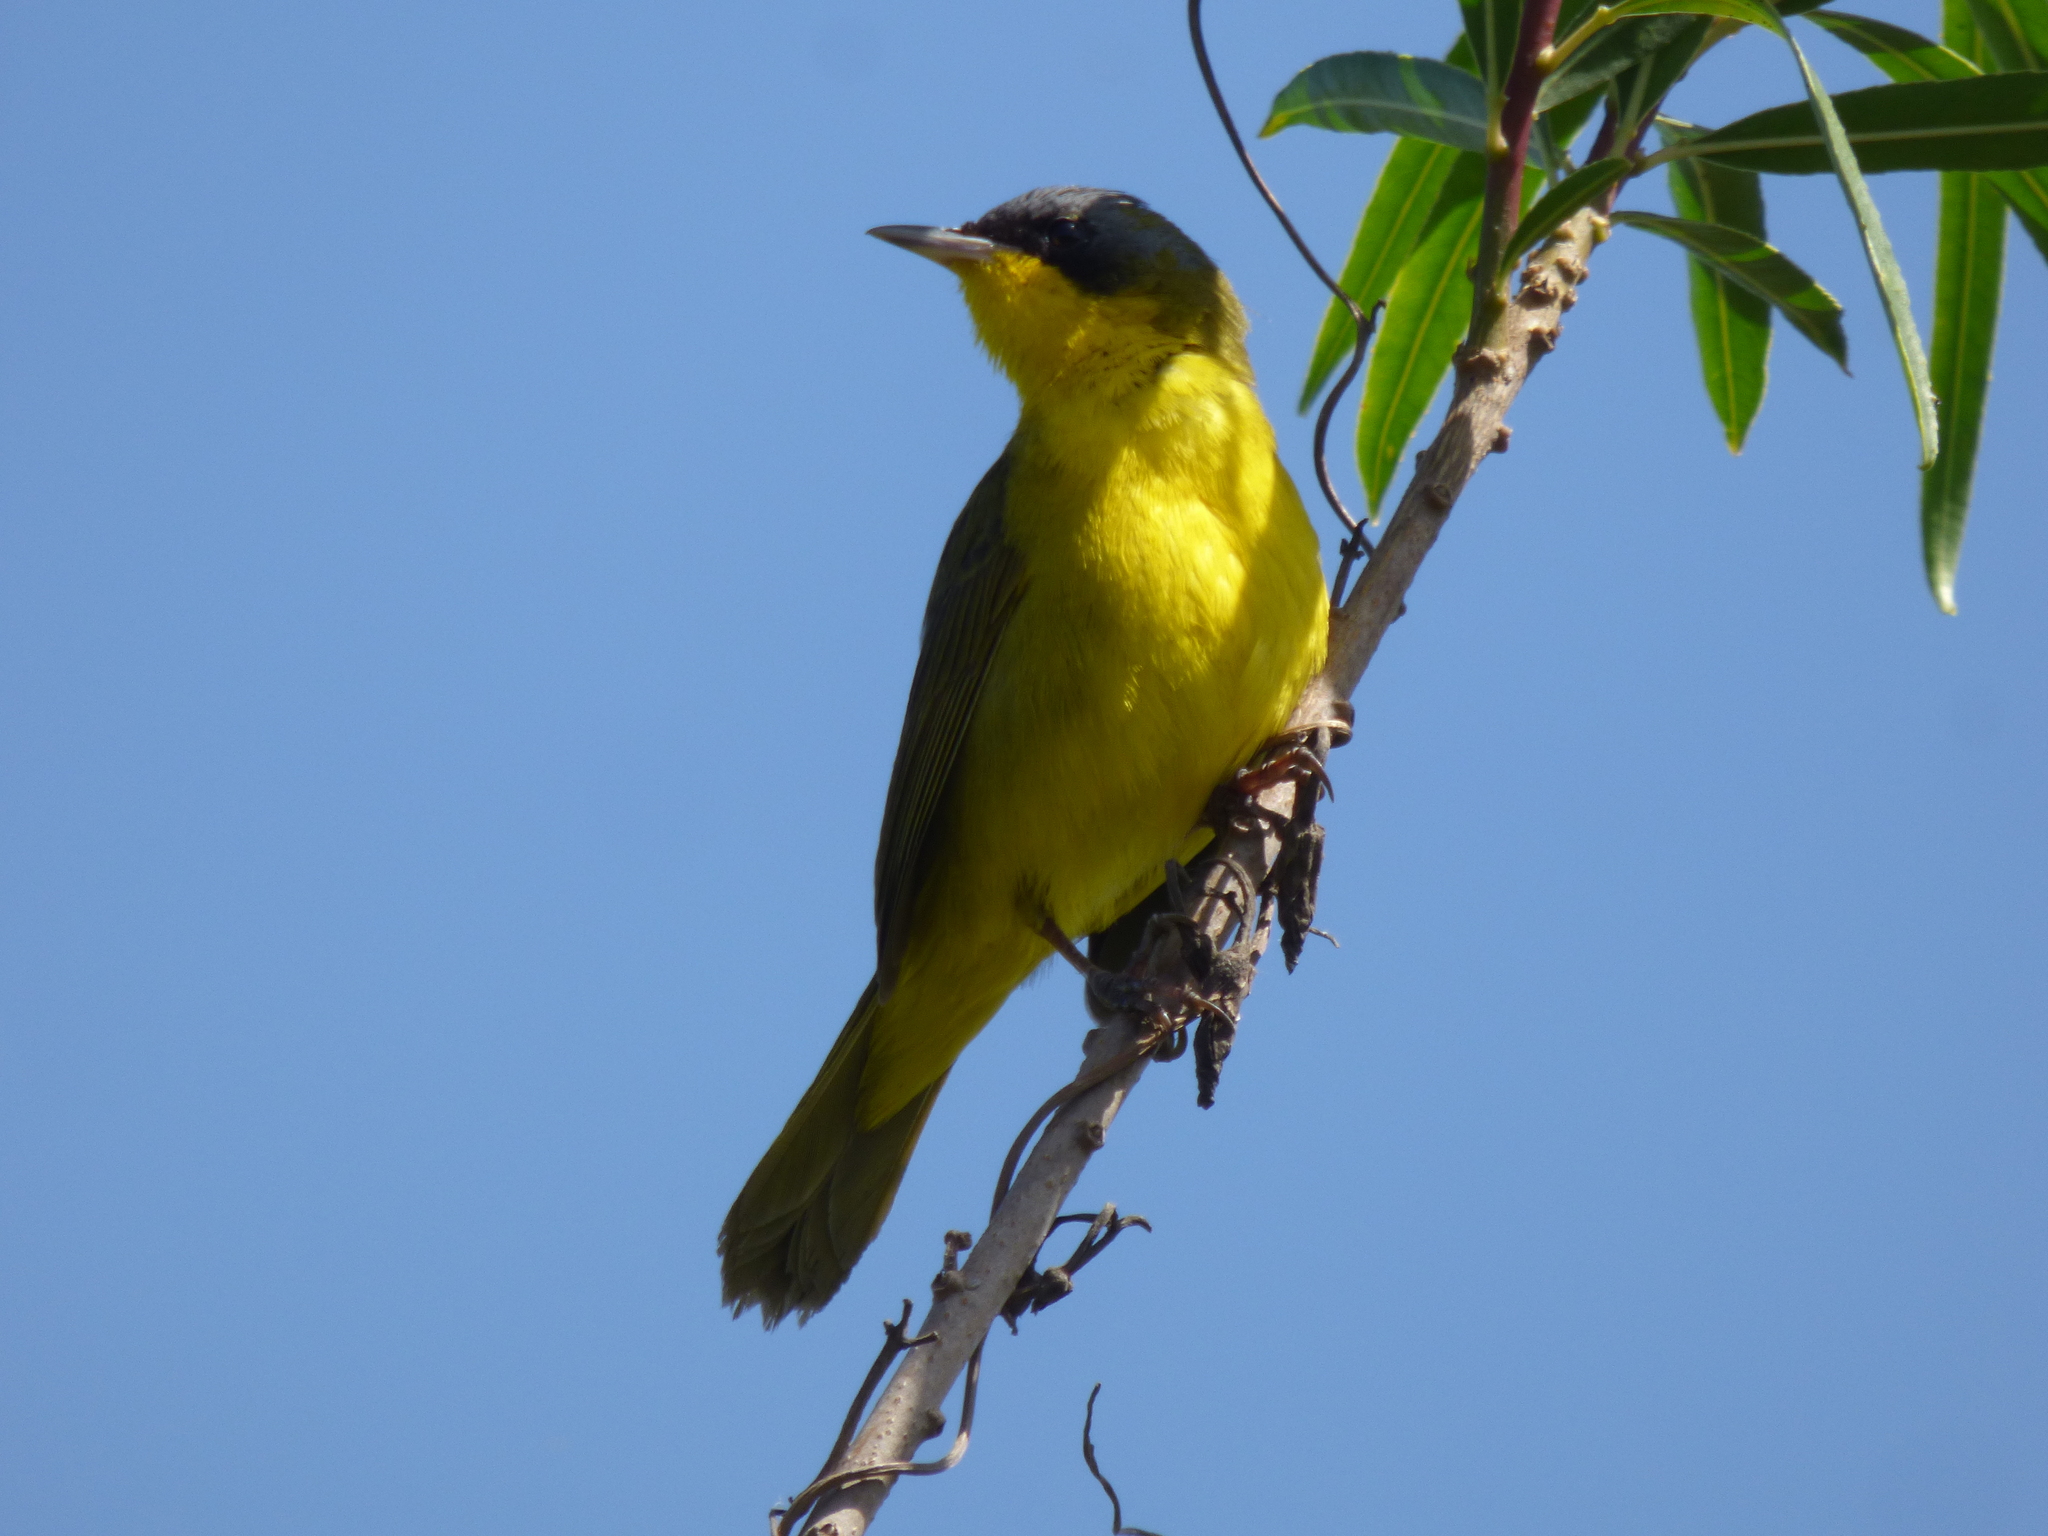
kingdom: Animalia
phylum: Chordata
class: Aves
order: Passeriformes
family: Parulidae
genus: Geothlypis
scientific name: Geothlypis velata
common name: Southern yellowthroat
